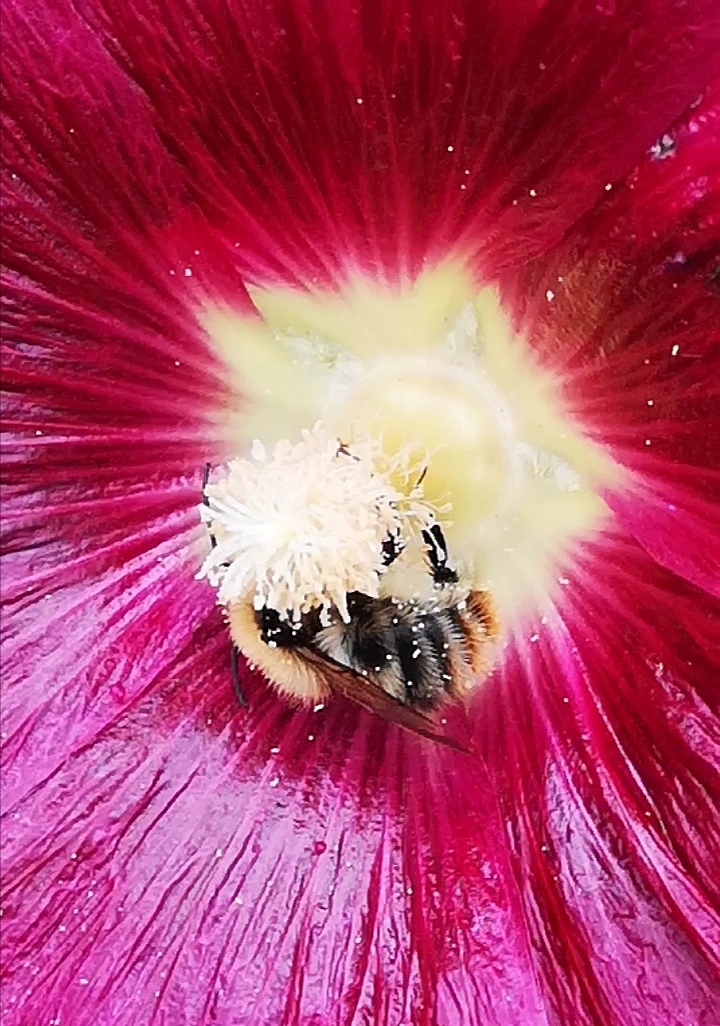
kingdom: Animalia
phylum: Arthropoda
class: Insecta
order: Hymenoptera
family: Apidae
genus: Bombus
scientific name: Bombus pascuorum
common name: Common carder bee
